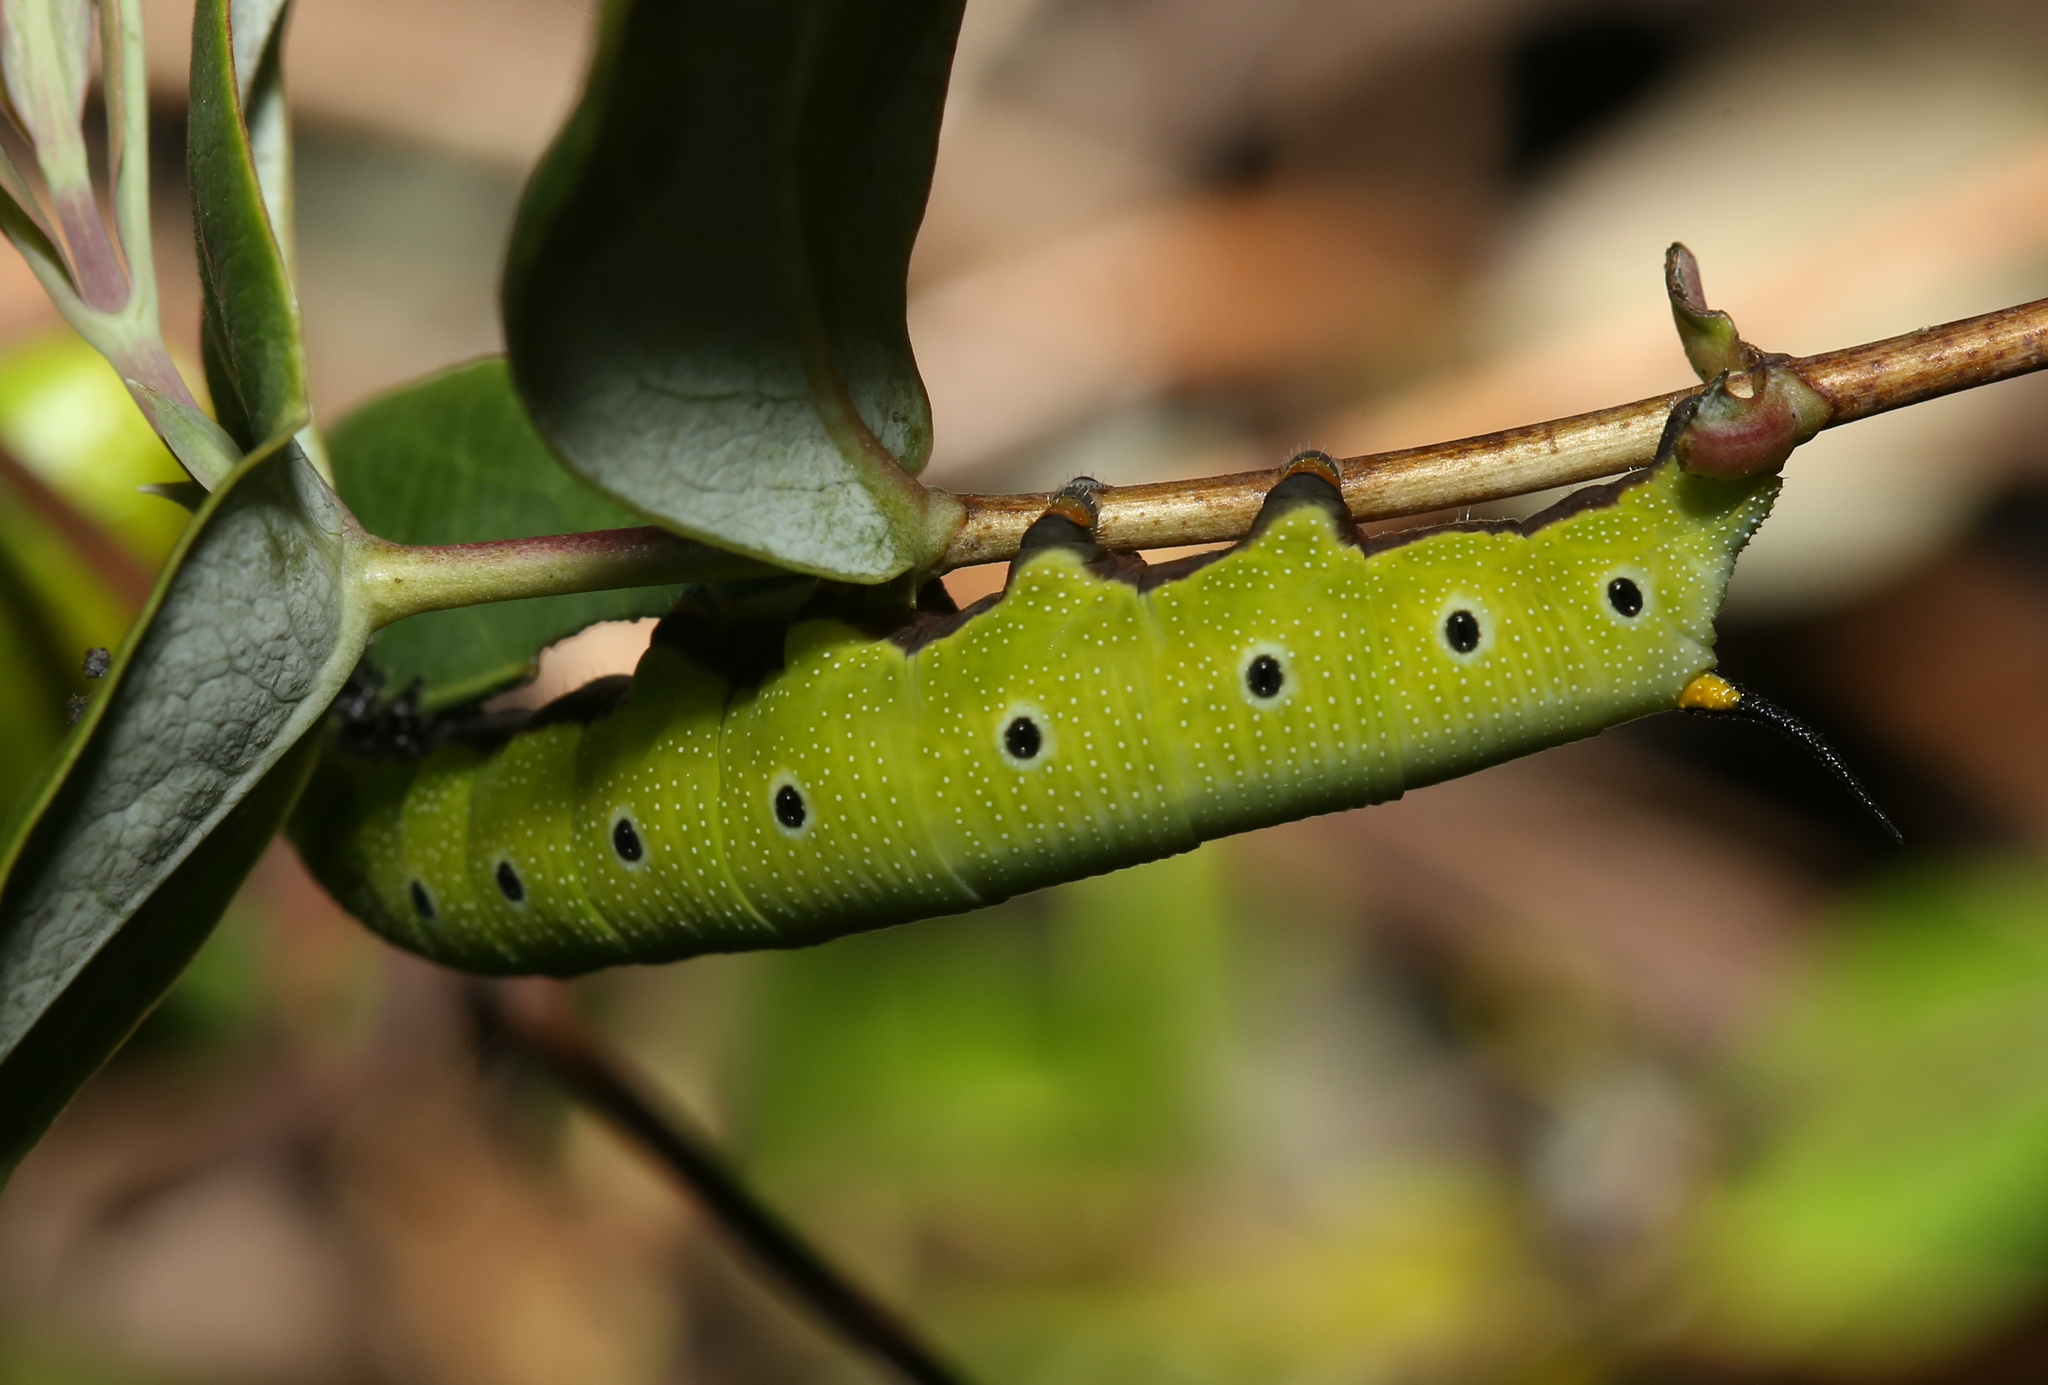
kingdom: Animalia
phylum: Arthropoda
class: Insecta
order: Lepidoptera
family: Sphingidae
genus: Hemaris
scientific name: Hemaris diffinis
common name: Bumblebee moth
